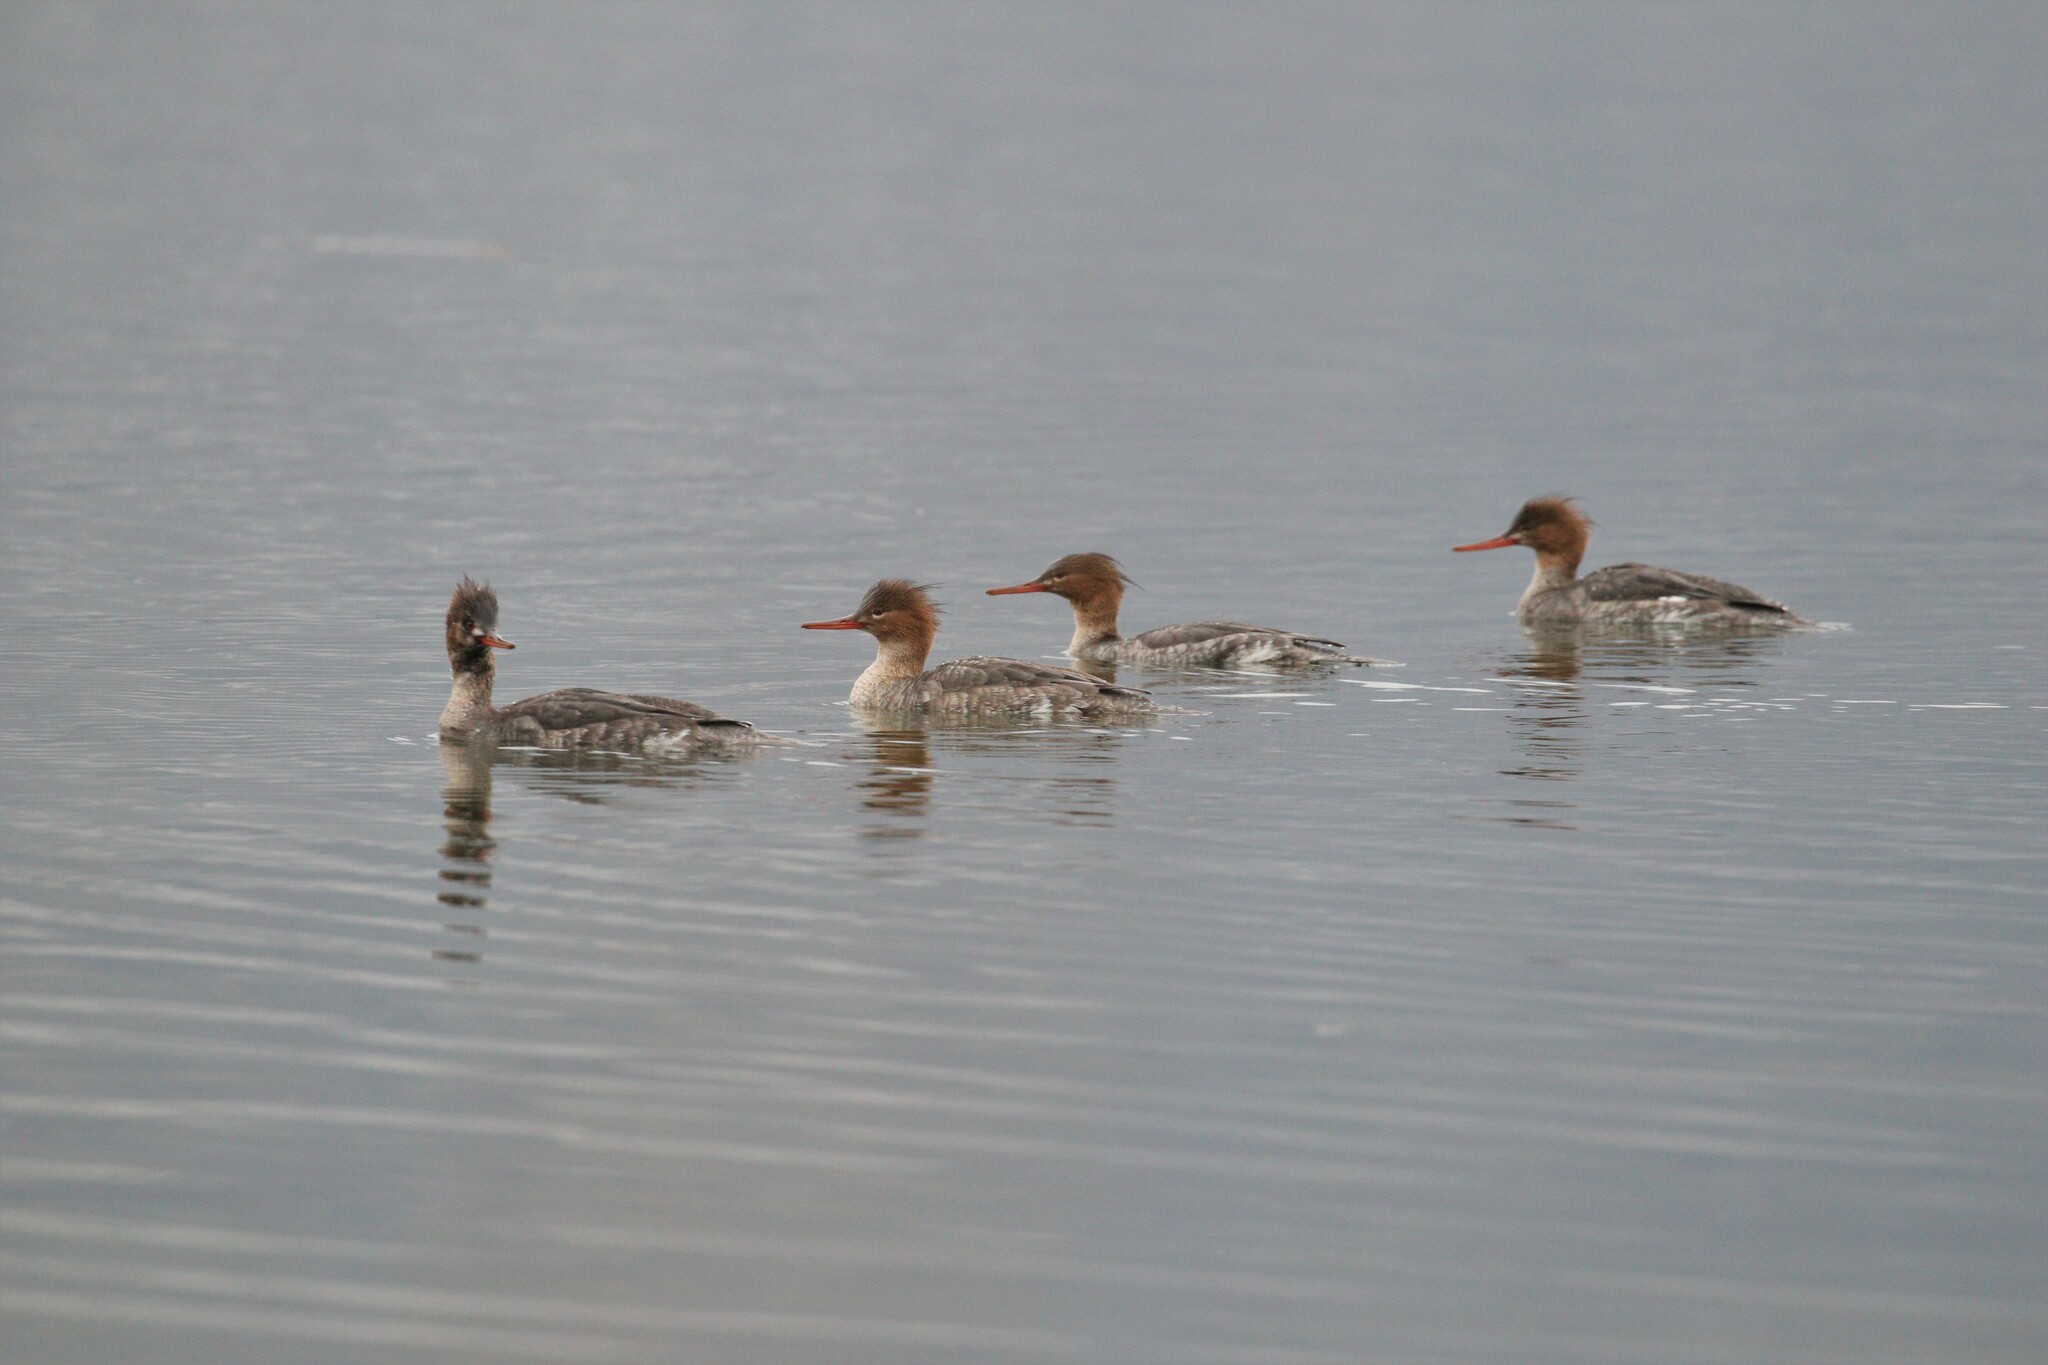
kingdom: Animalia
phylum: Chordata
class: Aves
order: Anseriformes
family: Anatidae
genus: Mergus
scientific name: Mergus serrator
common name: Red-breasted merganser
